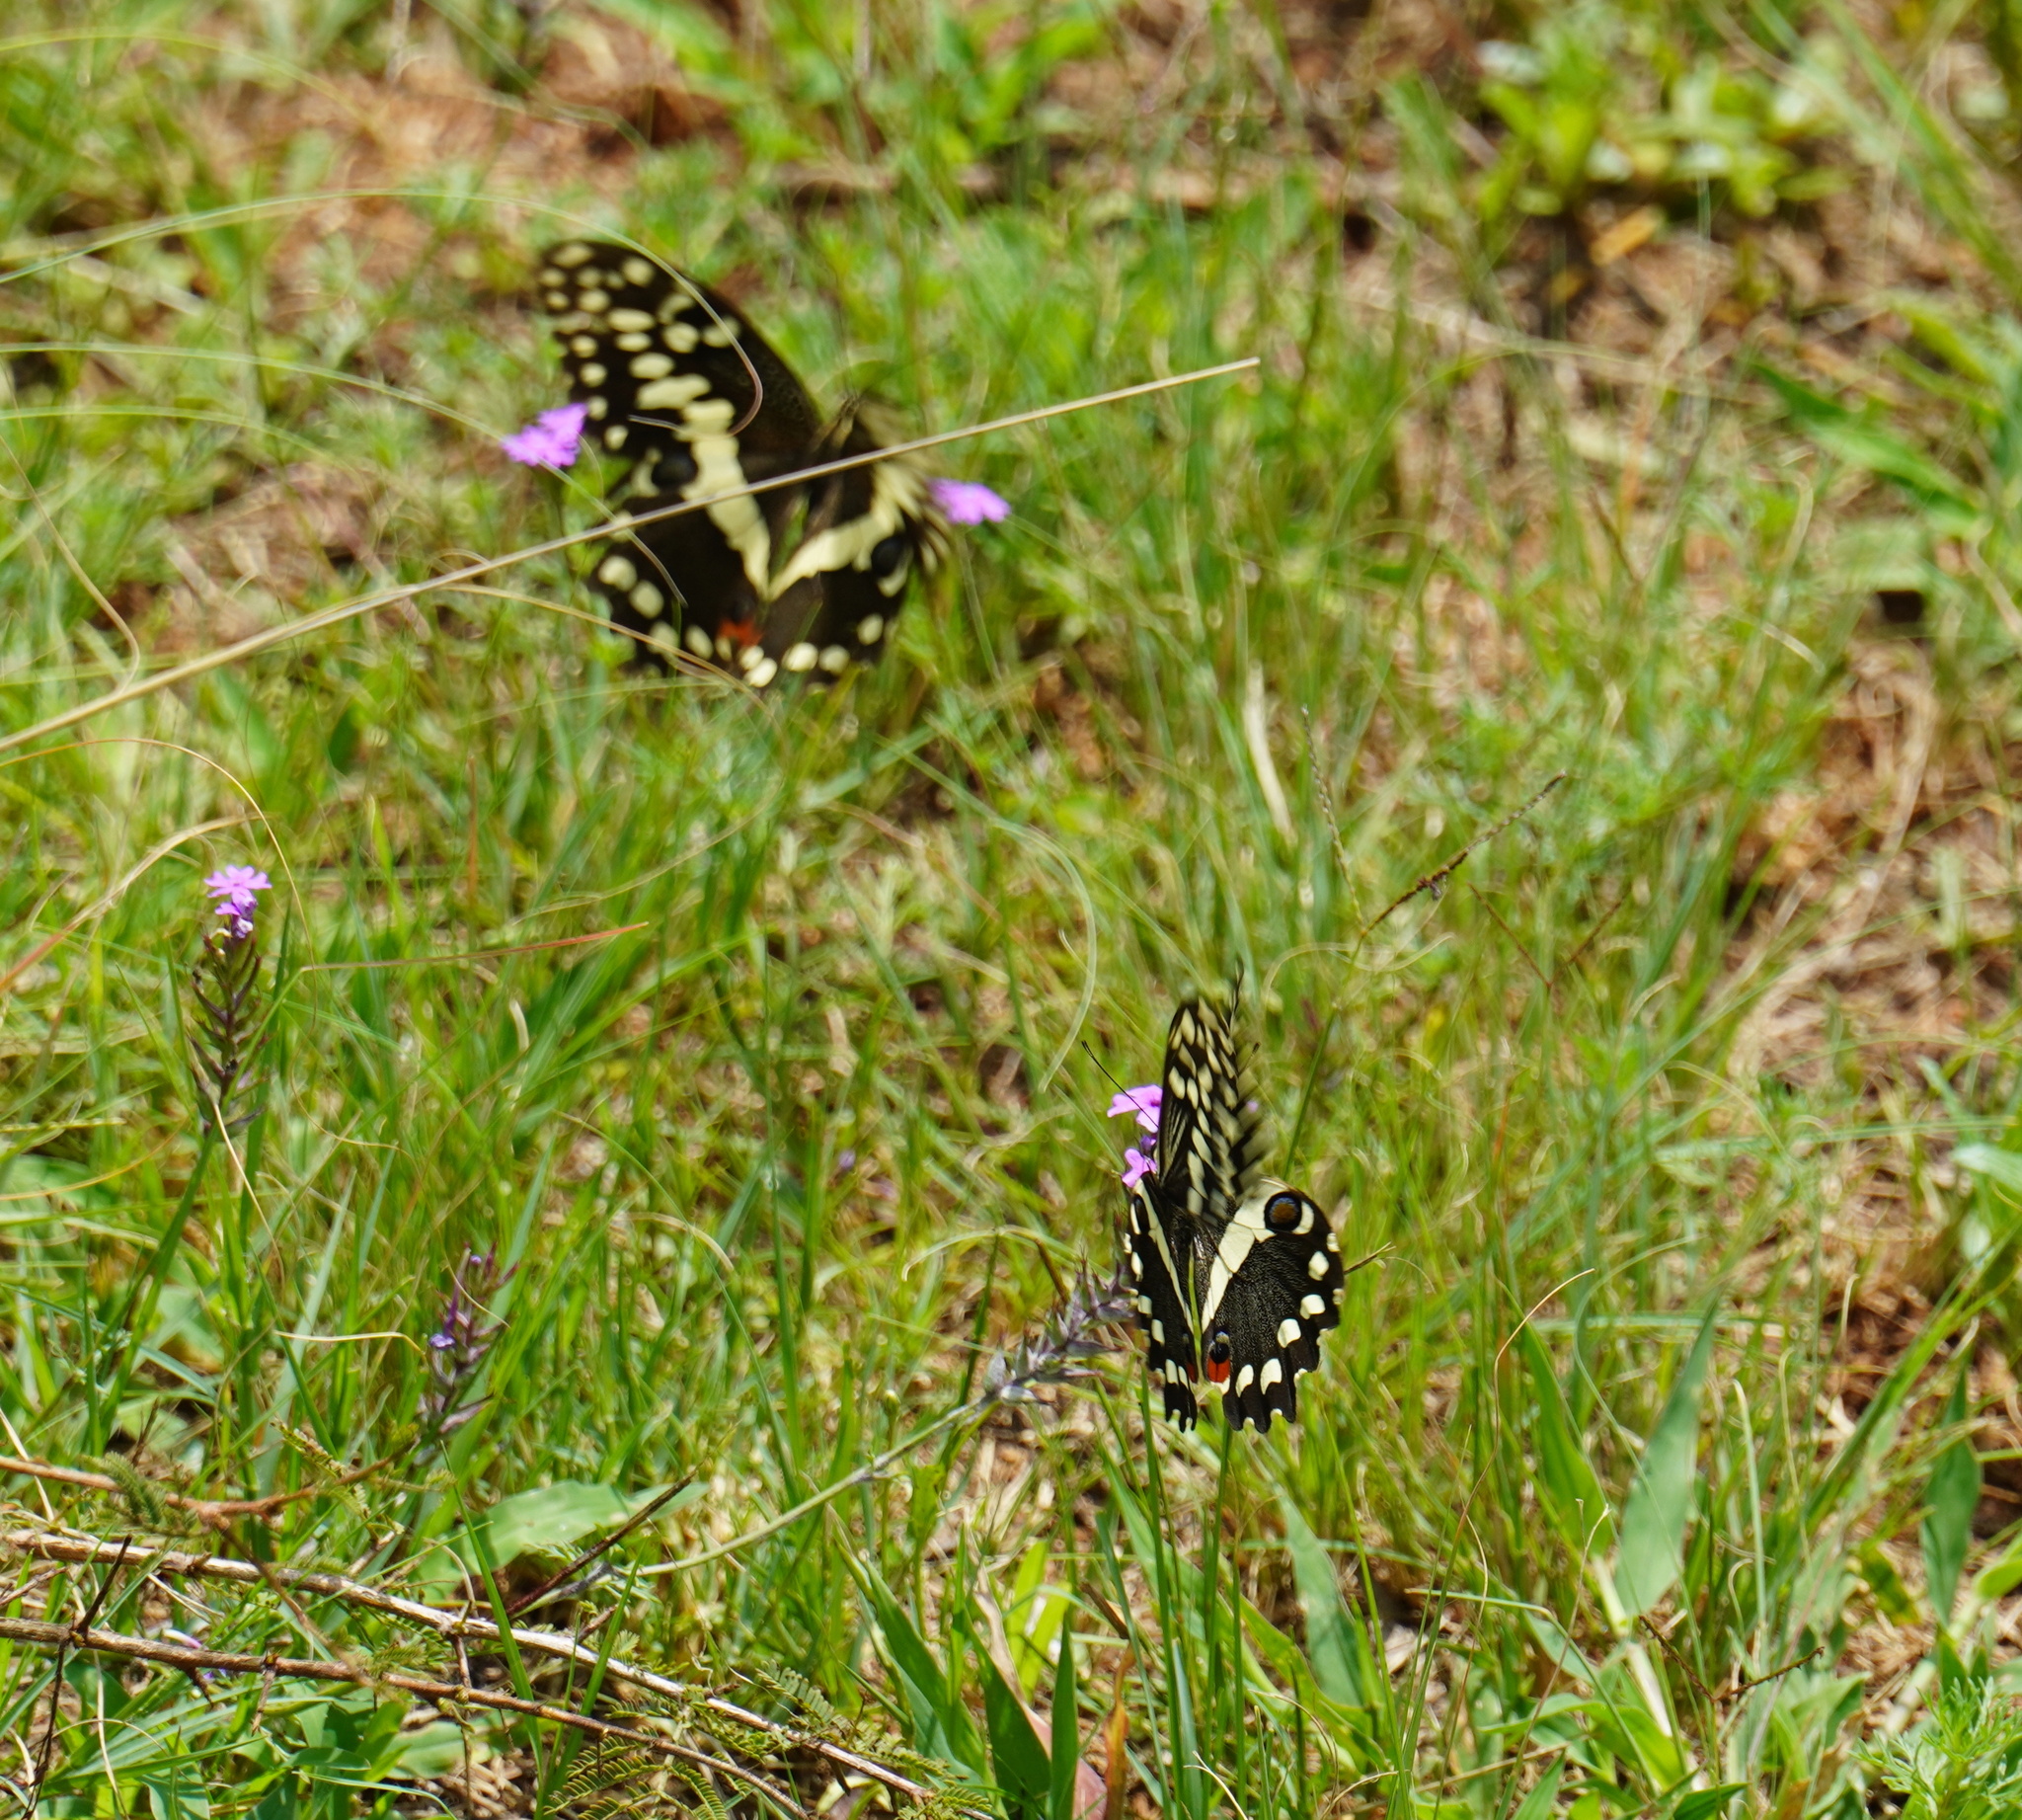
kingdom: Animalia
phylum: Arthropoda
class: Insecta
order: Lepidoptera
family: Papilionidae
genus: Papilio
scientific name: Papilio demodocus
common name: Christmas butterfly
